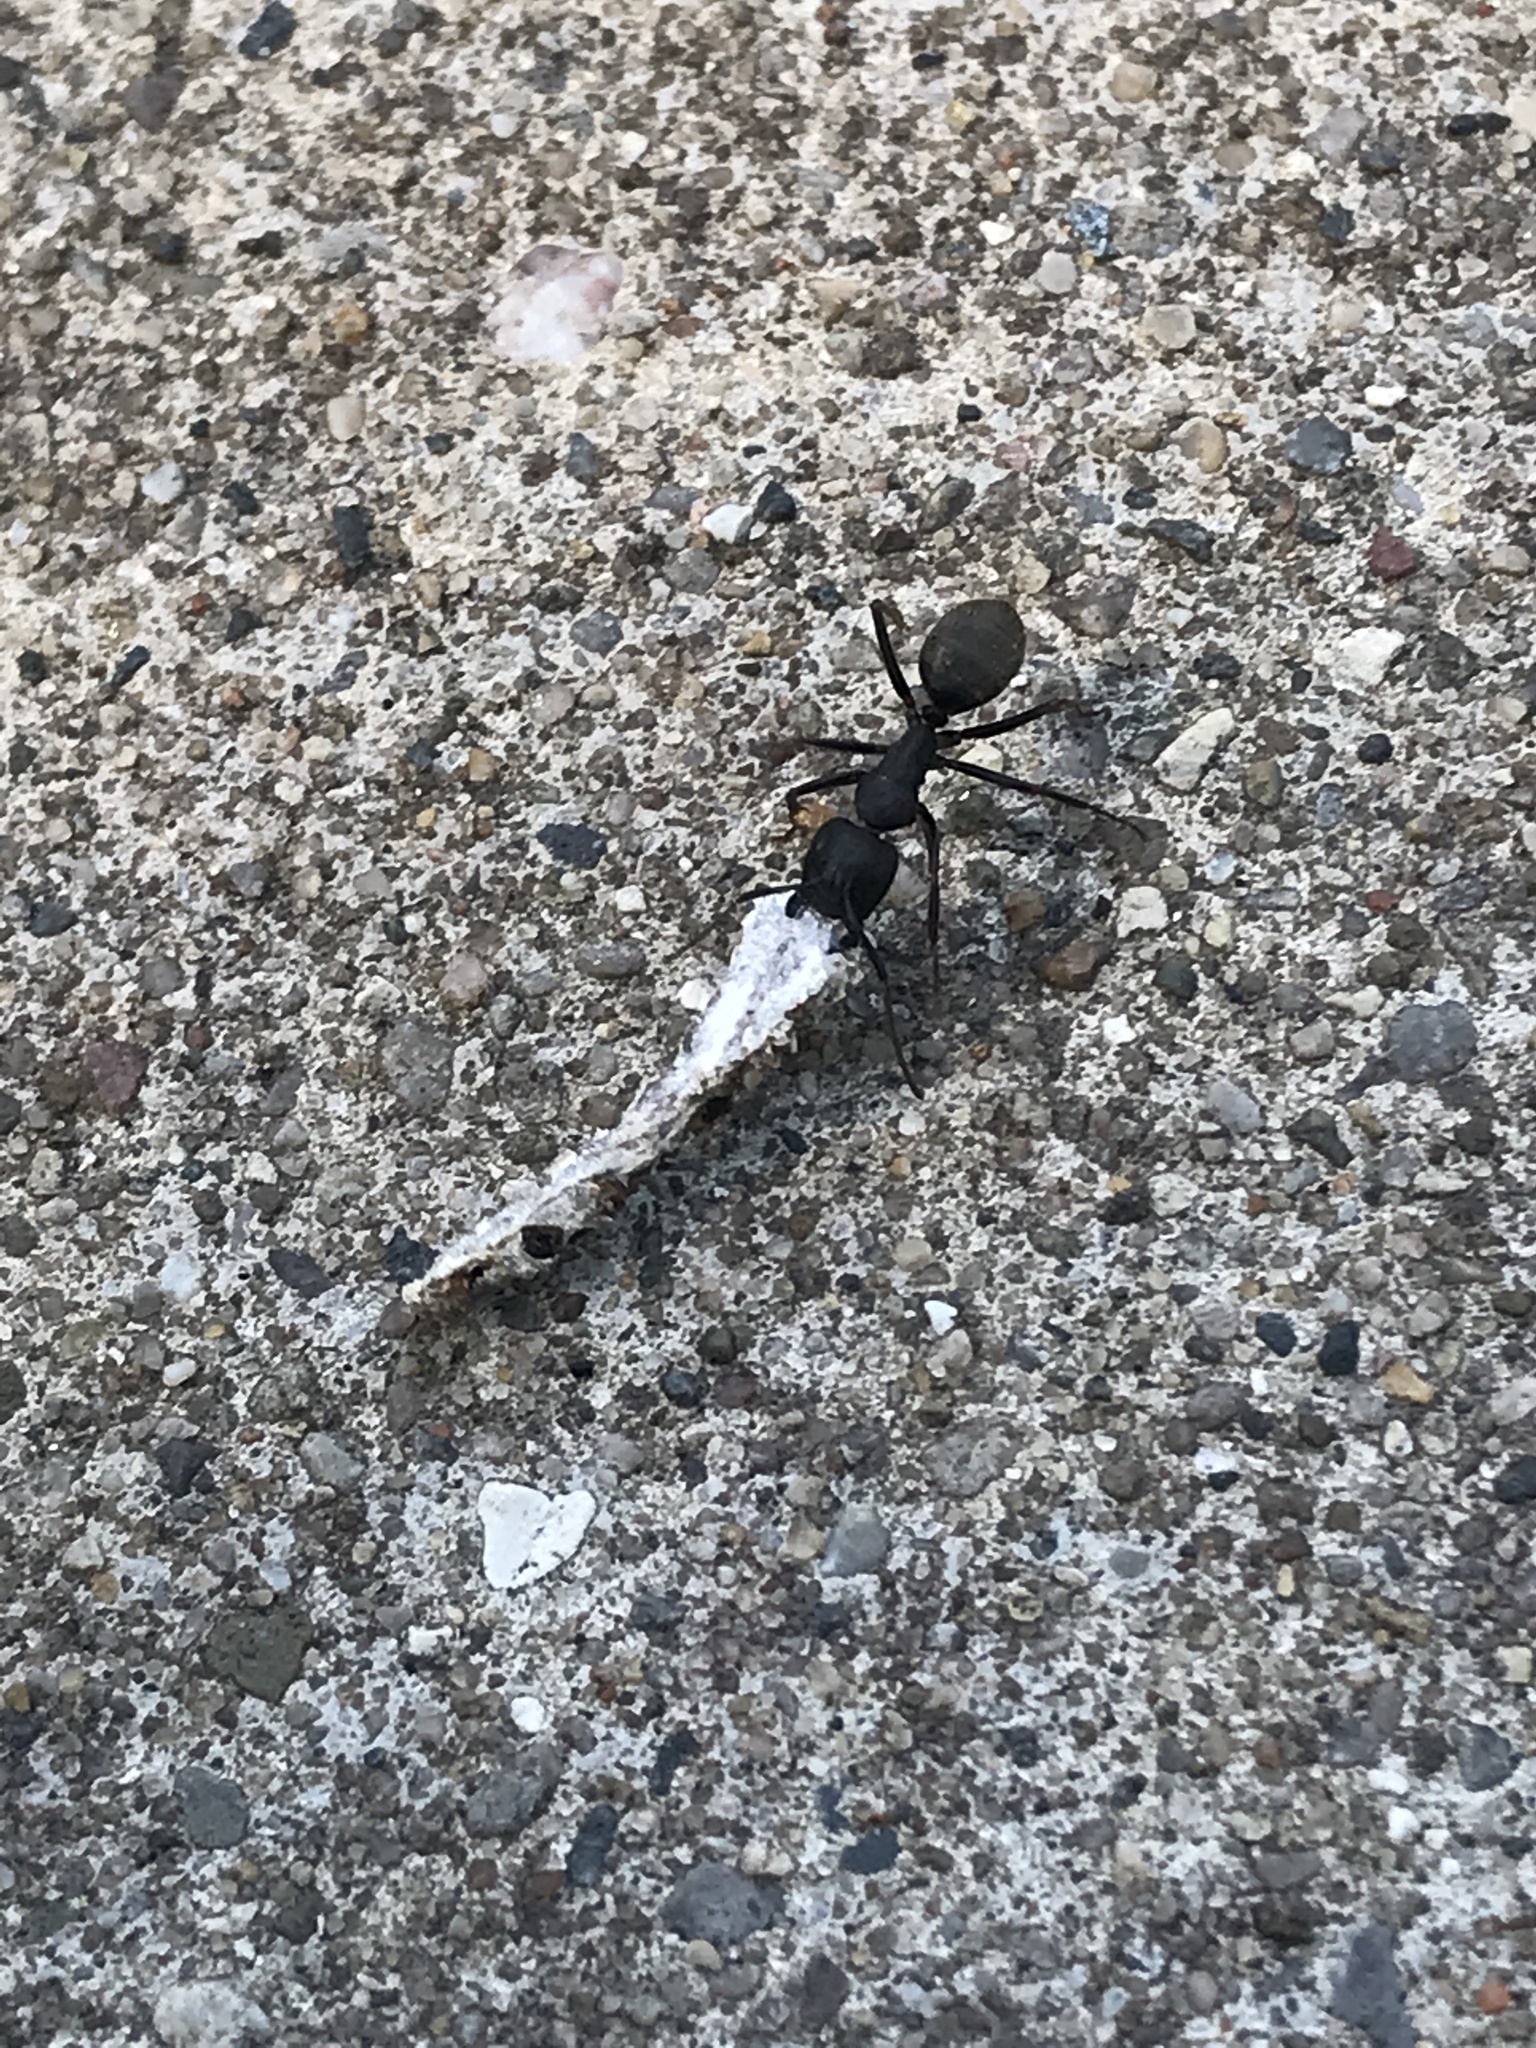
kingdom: Animalia
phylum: Arthropoda
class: Insecta
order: Hymenoptera
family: Formicidae
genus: Camponotus
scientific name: Camponotus pennsylvanicus
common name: Black carpenter ant
